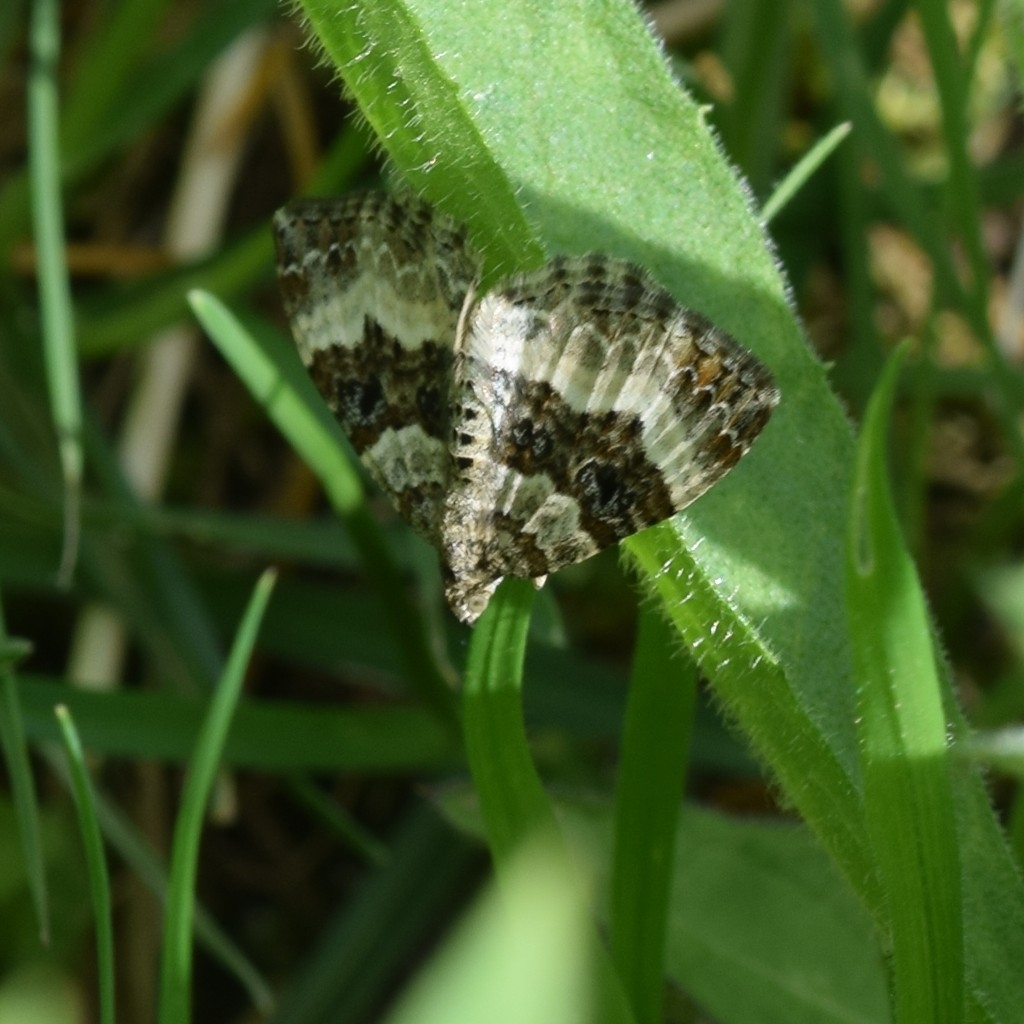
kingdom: Animalia
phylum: Arthropoda
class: Insecta
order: Lepidoptera
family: Geometridae
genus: Epirrhoe
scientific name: Epirrhoe alternata
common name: Common carpet
